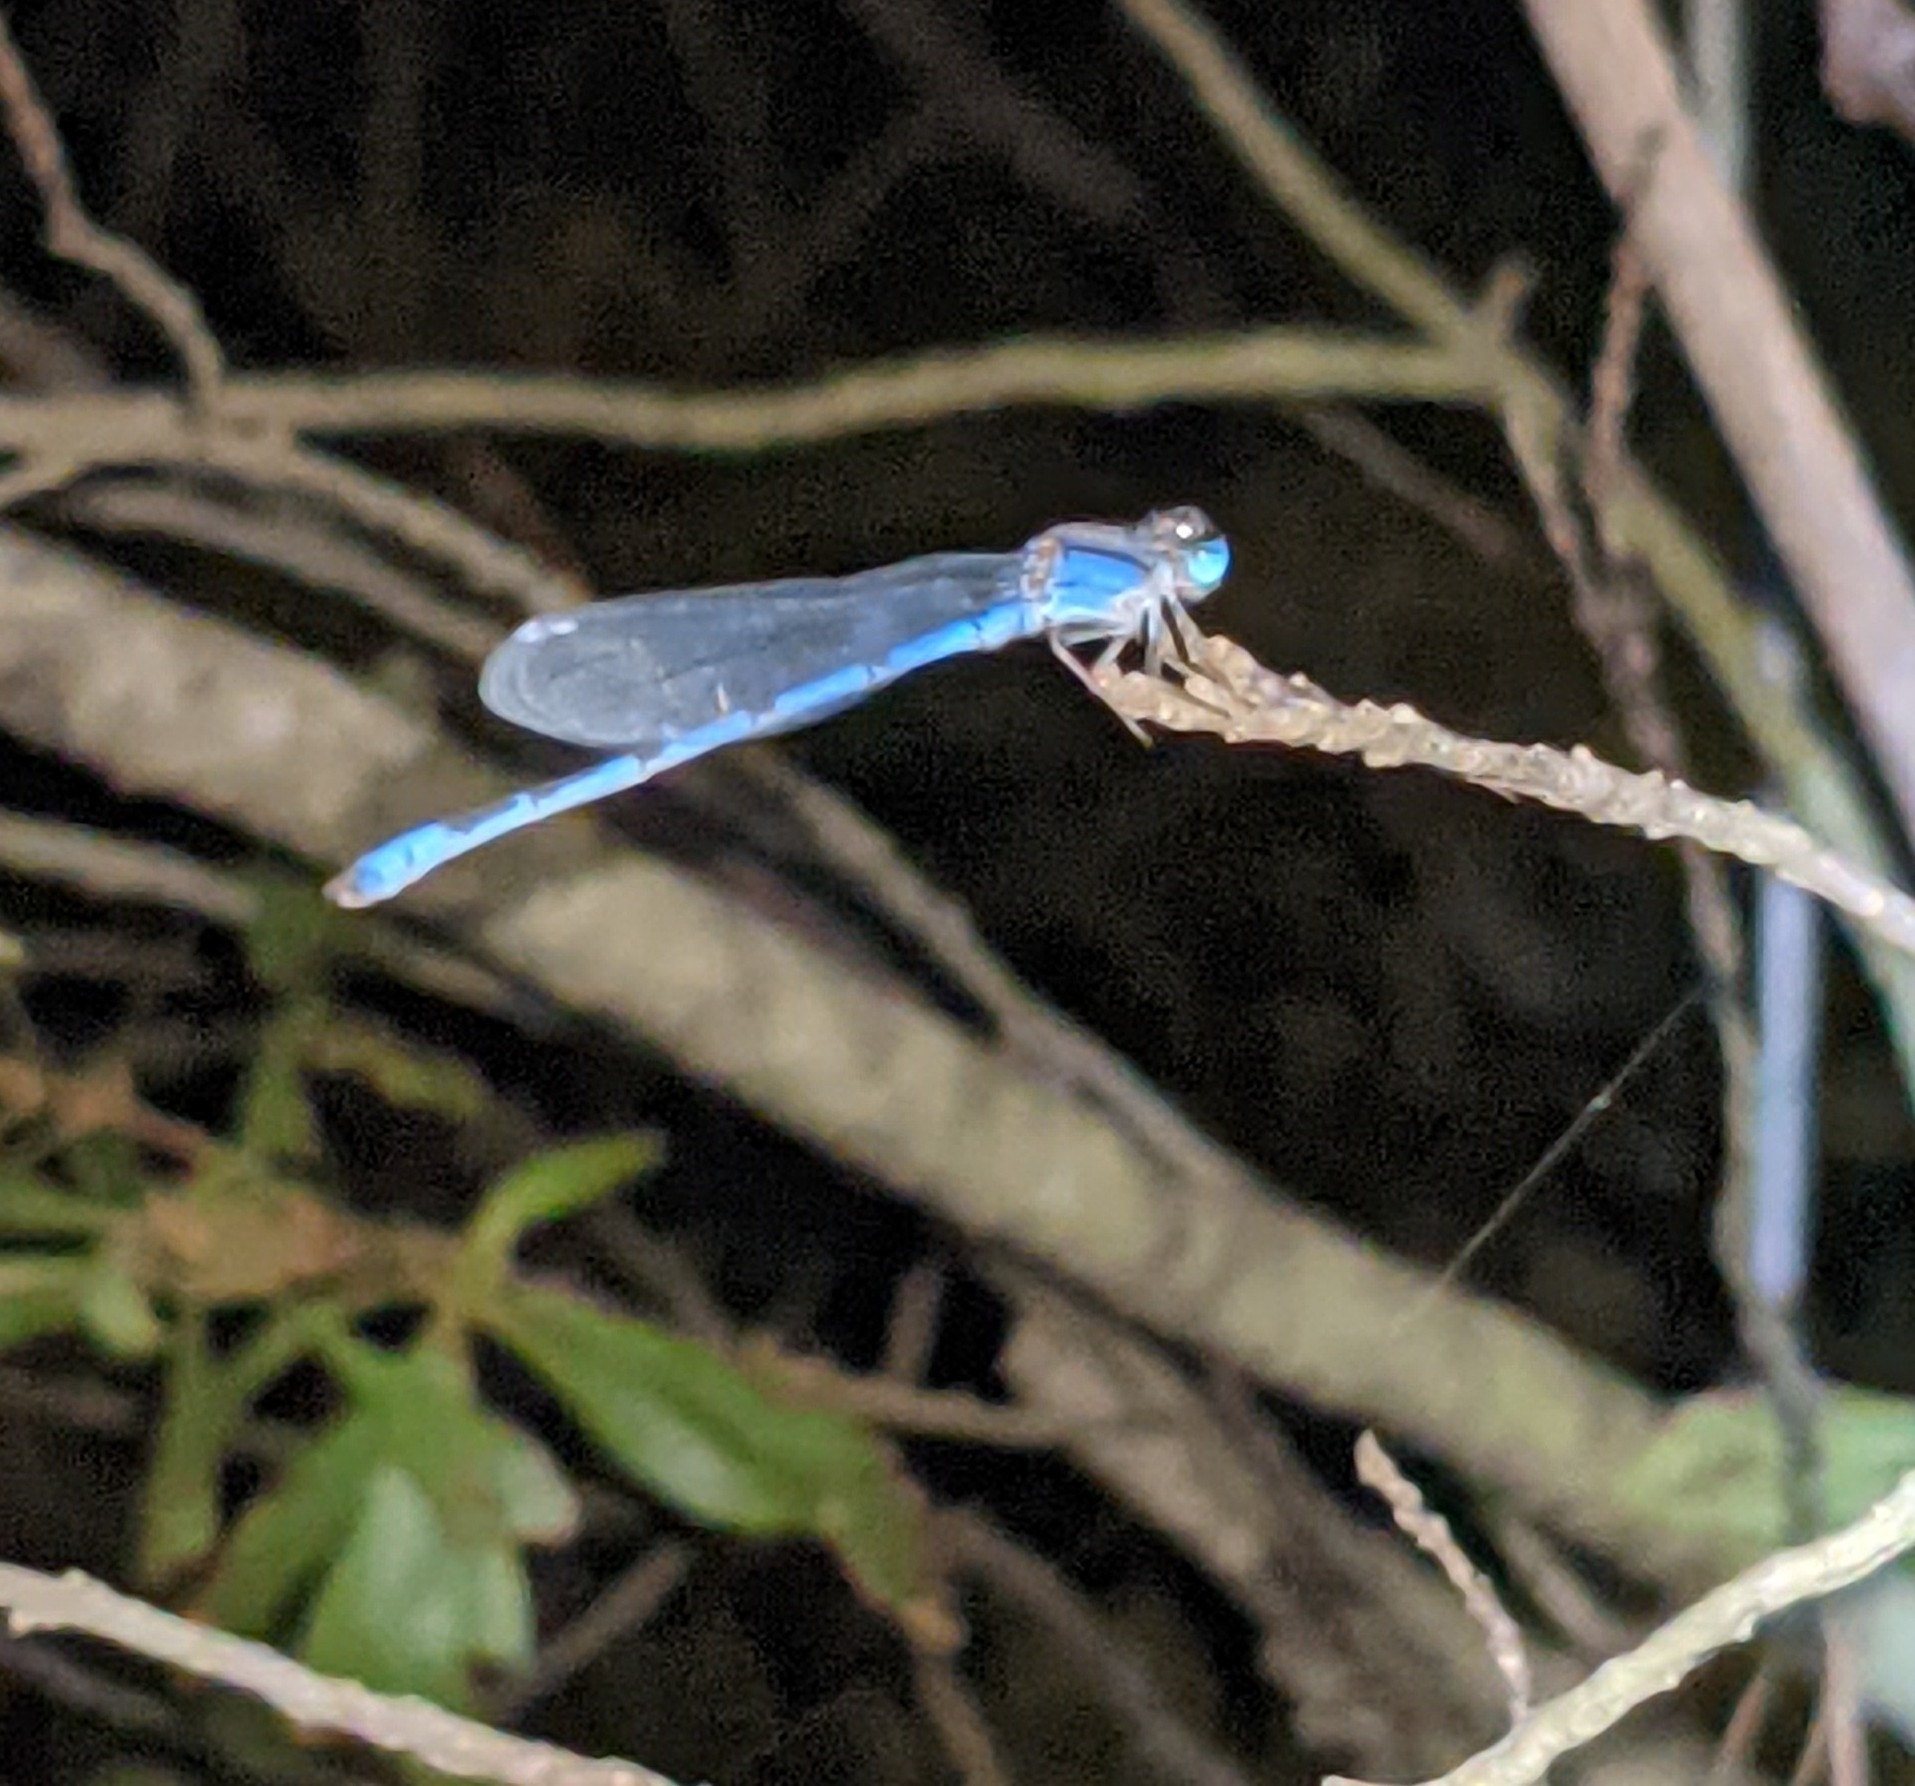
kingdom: Animalia
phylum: Arthropoda
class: Insecta
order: Odonata
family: Coenagrionidae
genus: Enallagma
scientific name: Enallagma civile
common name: Damselfly
